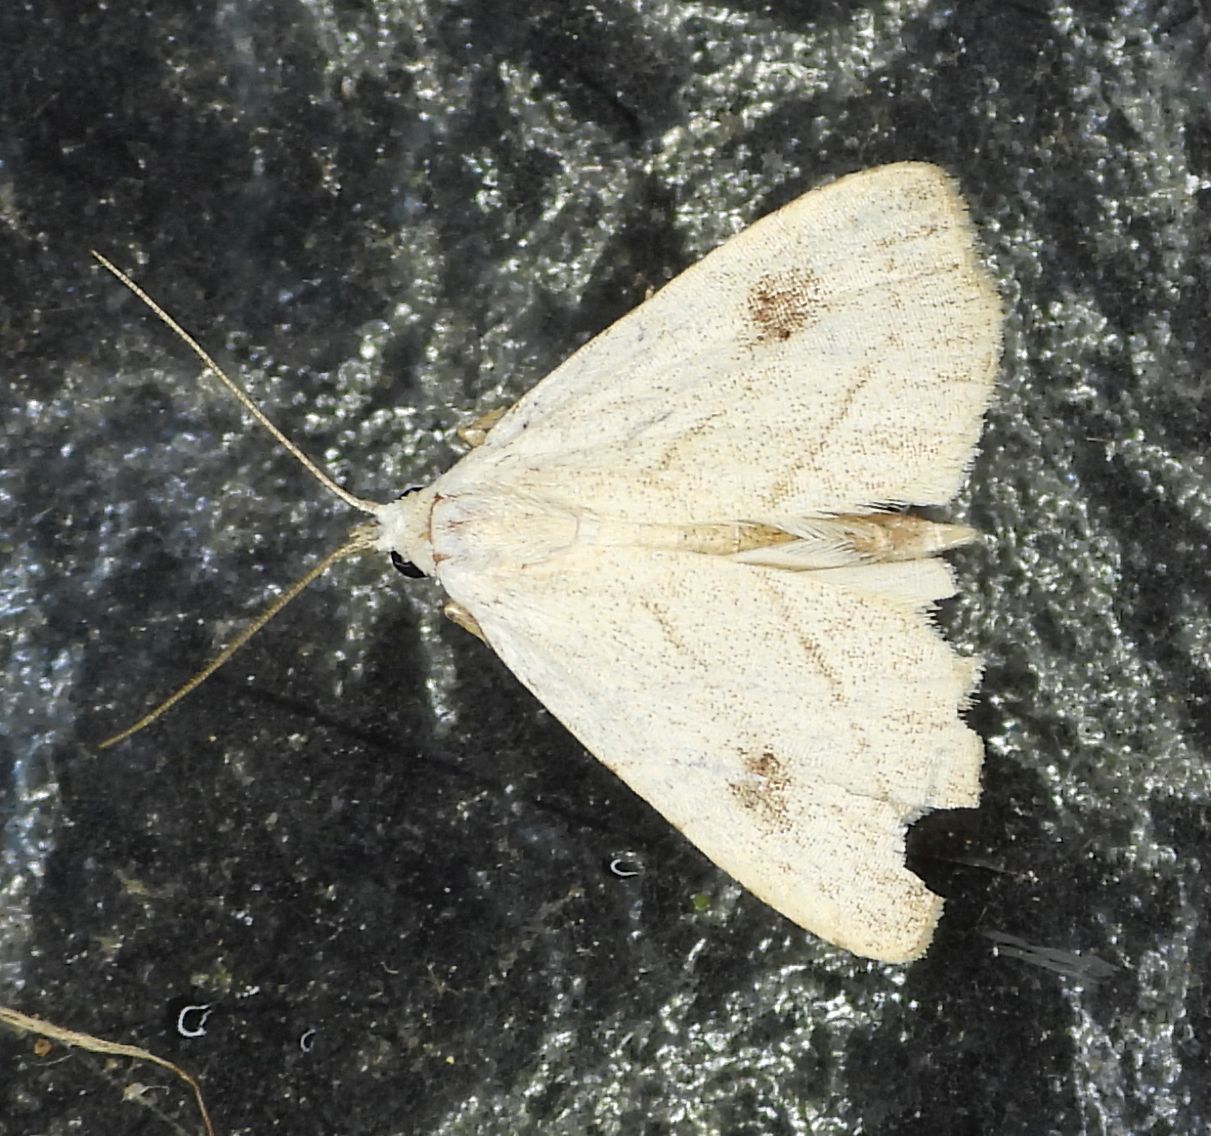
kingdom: Animalia
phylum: Arthropoda
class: Insecta
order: Lepidoptera
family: Erebidae
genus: Rivula
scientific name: Rivula propinqualis
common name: Spotted grass moth
